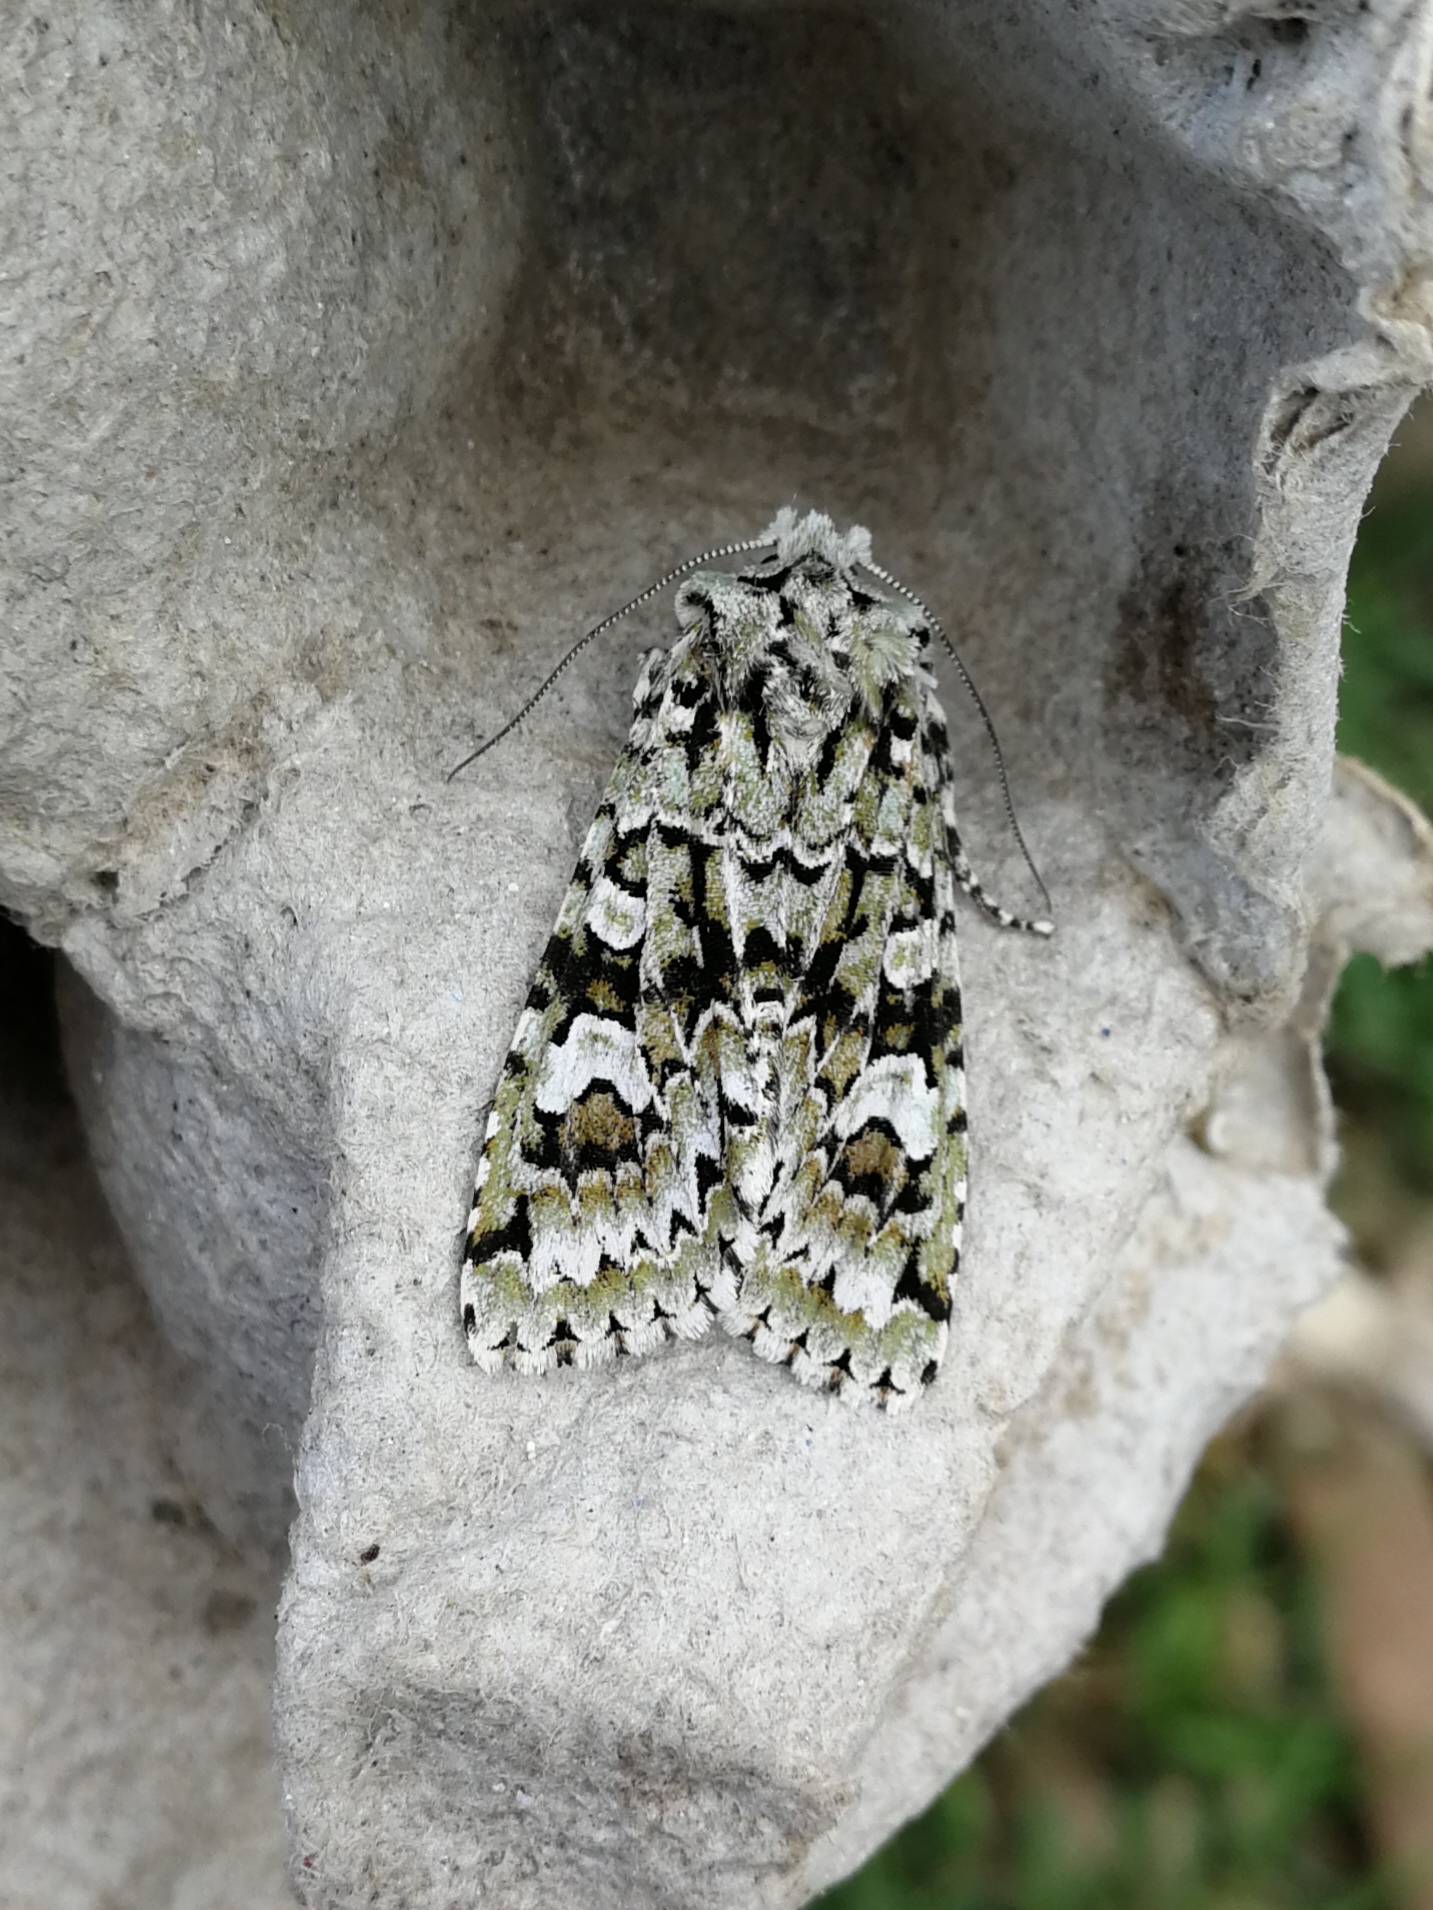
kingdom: Animalia
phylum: Arthropoda
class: Insecta
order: Lepidoptera
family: Noctuidae
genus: Griposia
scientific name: Griposia aprilina
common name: Merveille du jour
